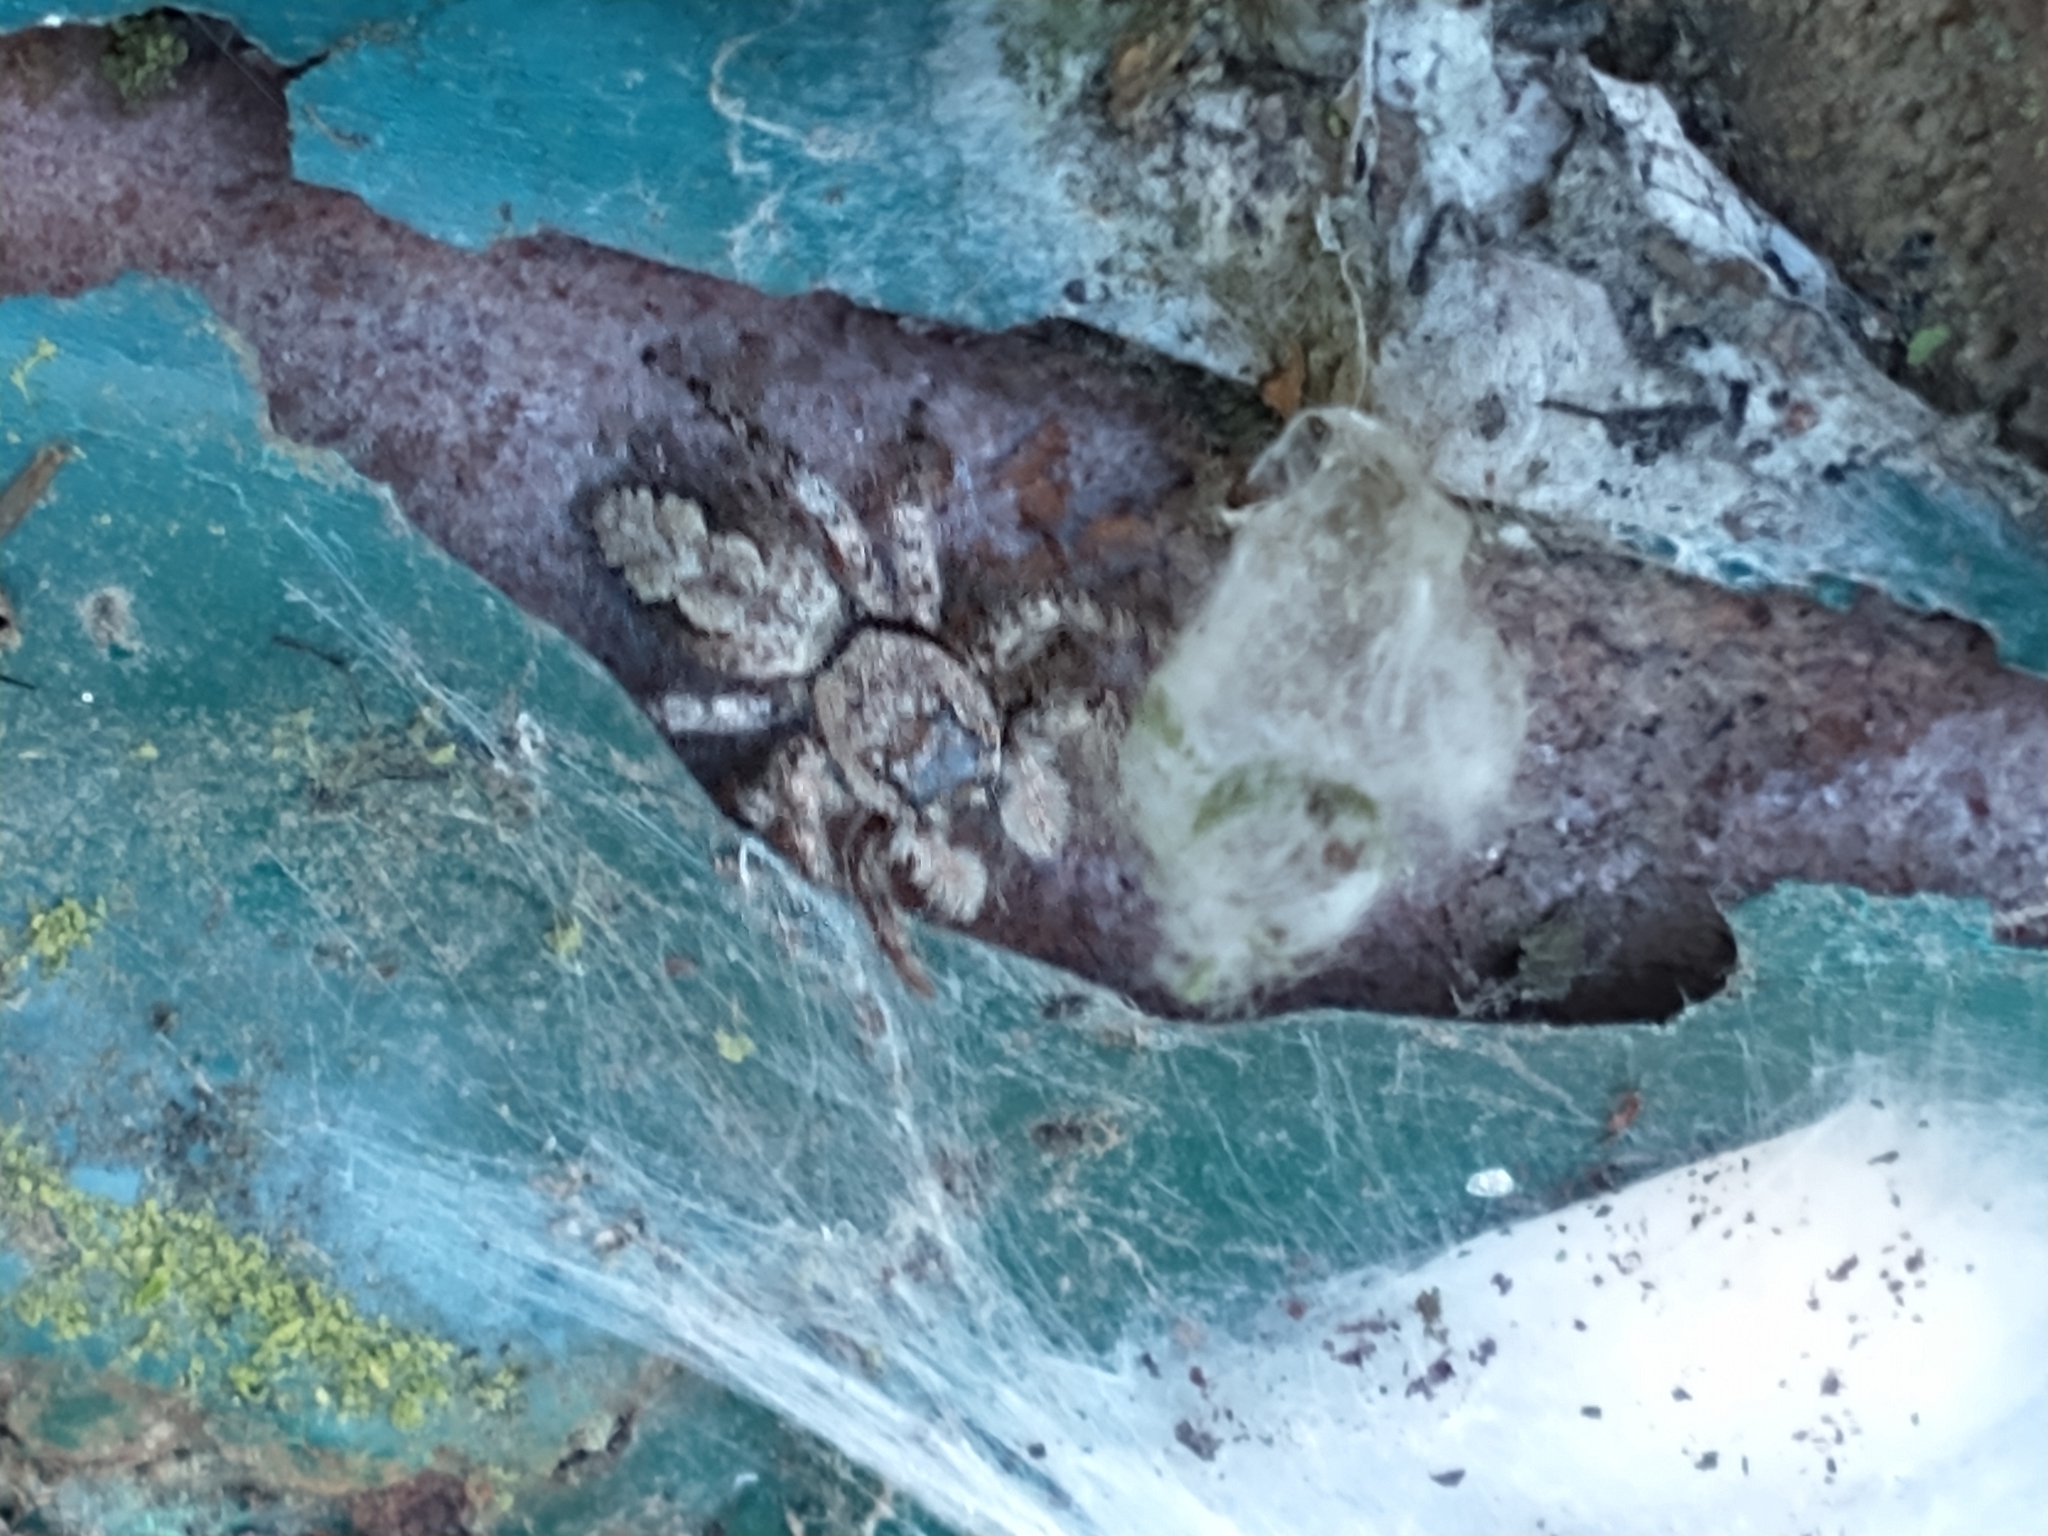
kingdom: Animalia
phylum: Arthropoda
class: Arachnida
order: Araneae
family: Salticidae
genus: Platycryptus
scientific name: Platycryptus undatus
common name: Tan jumping spider
